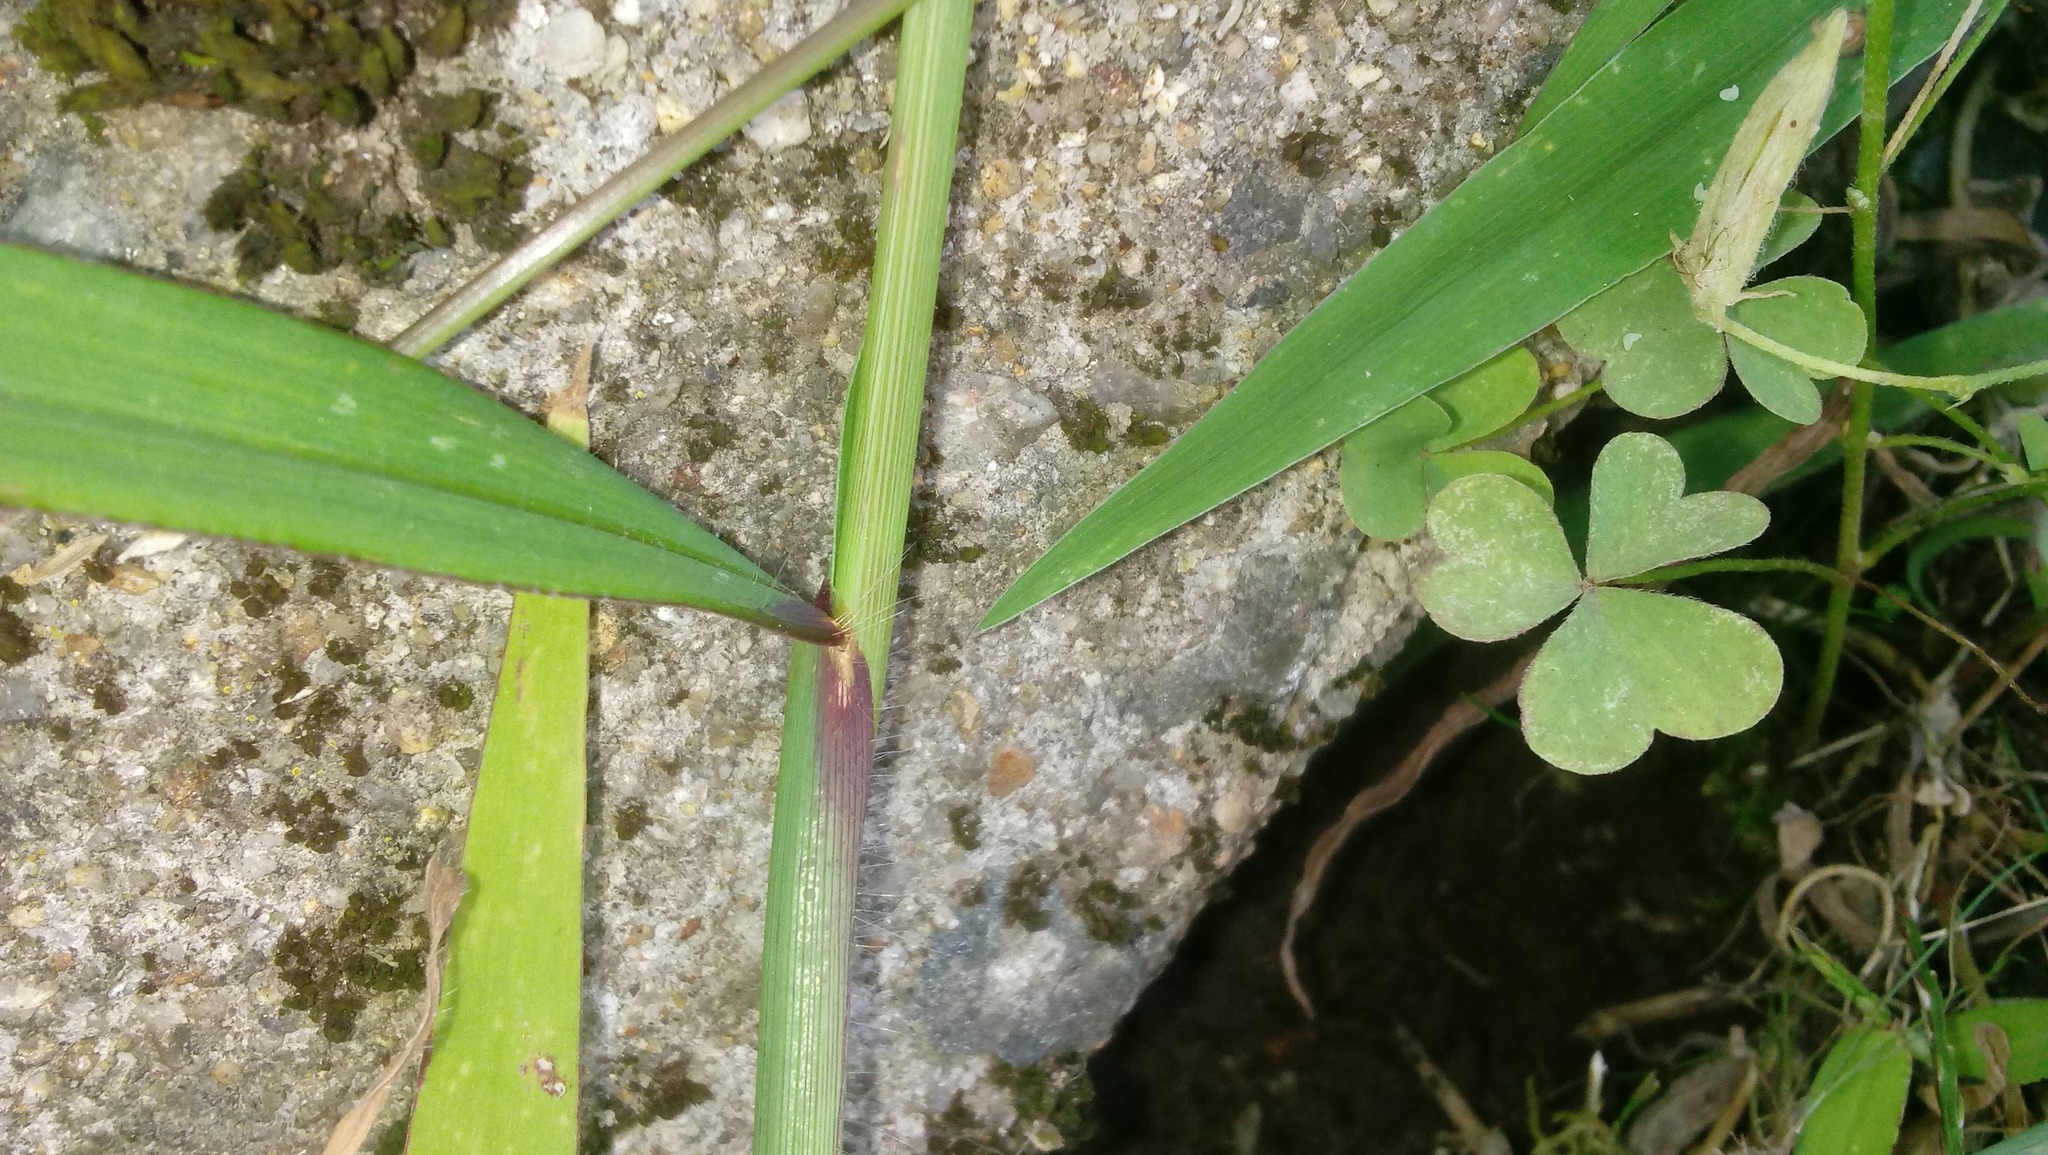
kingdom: Plantae
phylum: Tracheophyta
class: Liliopsida
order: Poales
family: Poaceae
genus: Digitaria
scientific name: Digitaria sanguinalis
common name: Hairy crabgrass
